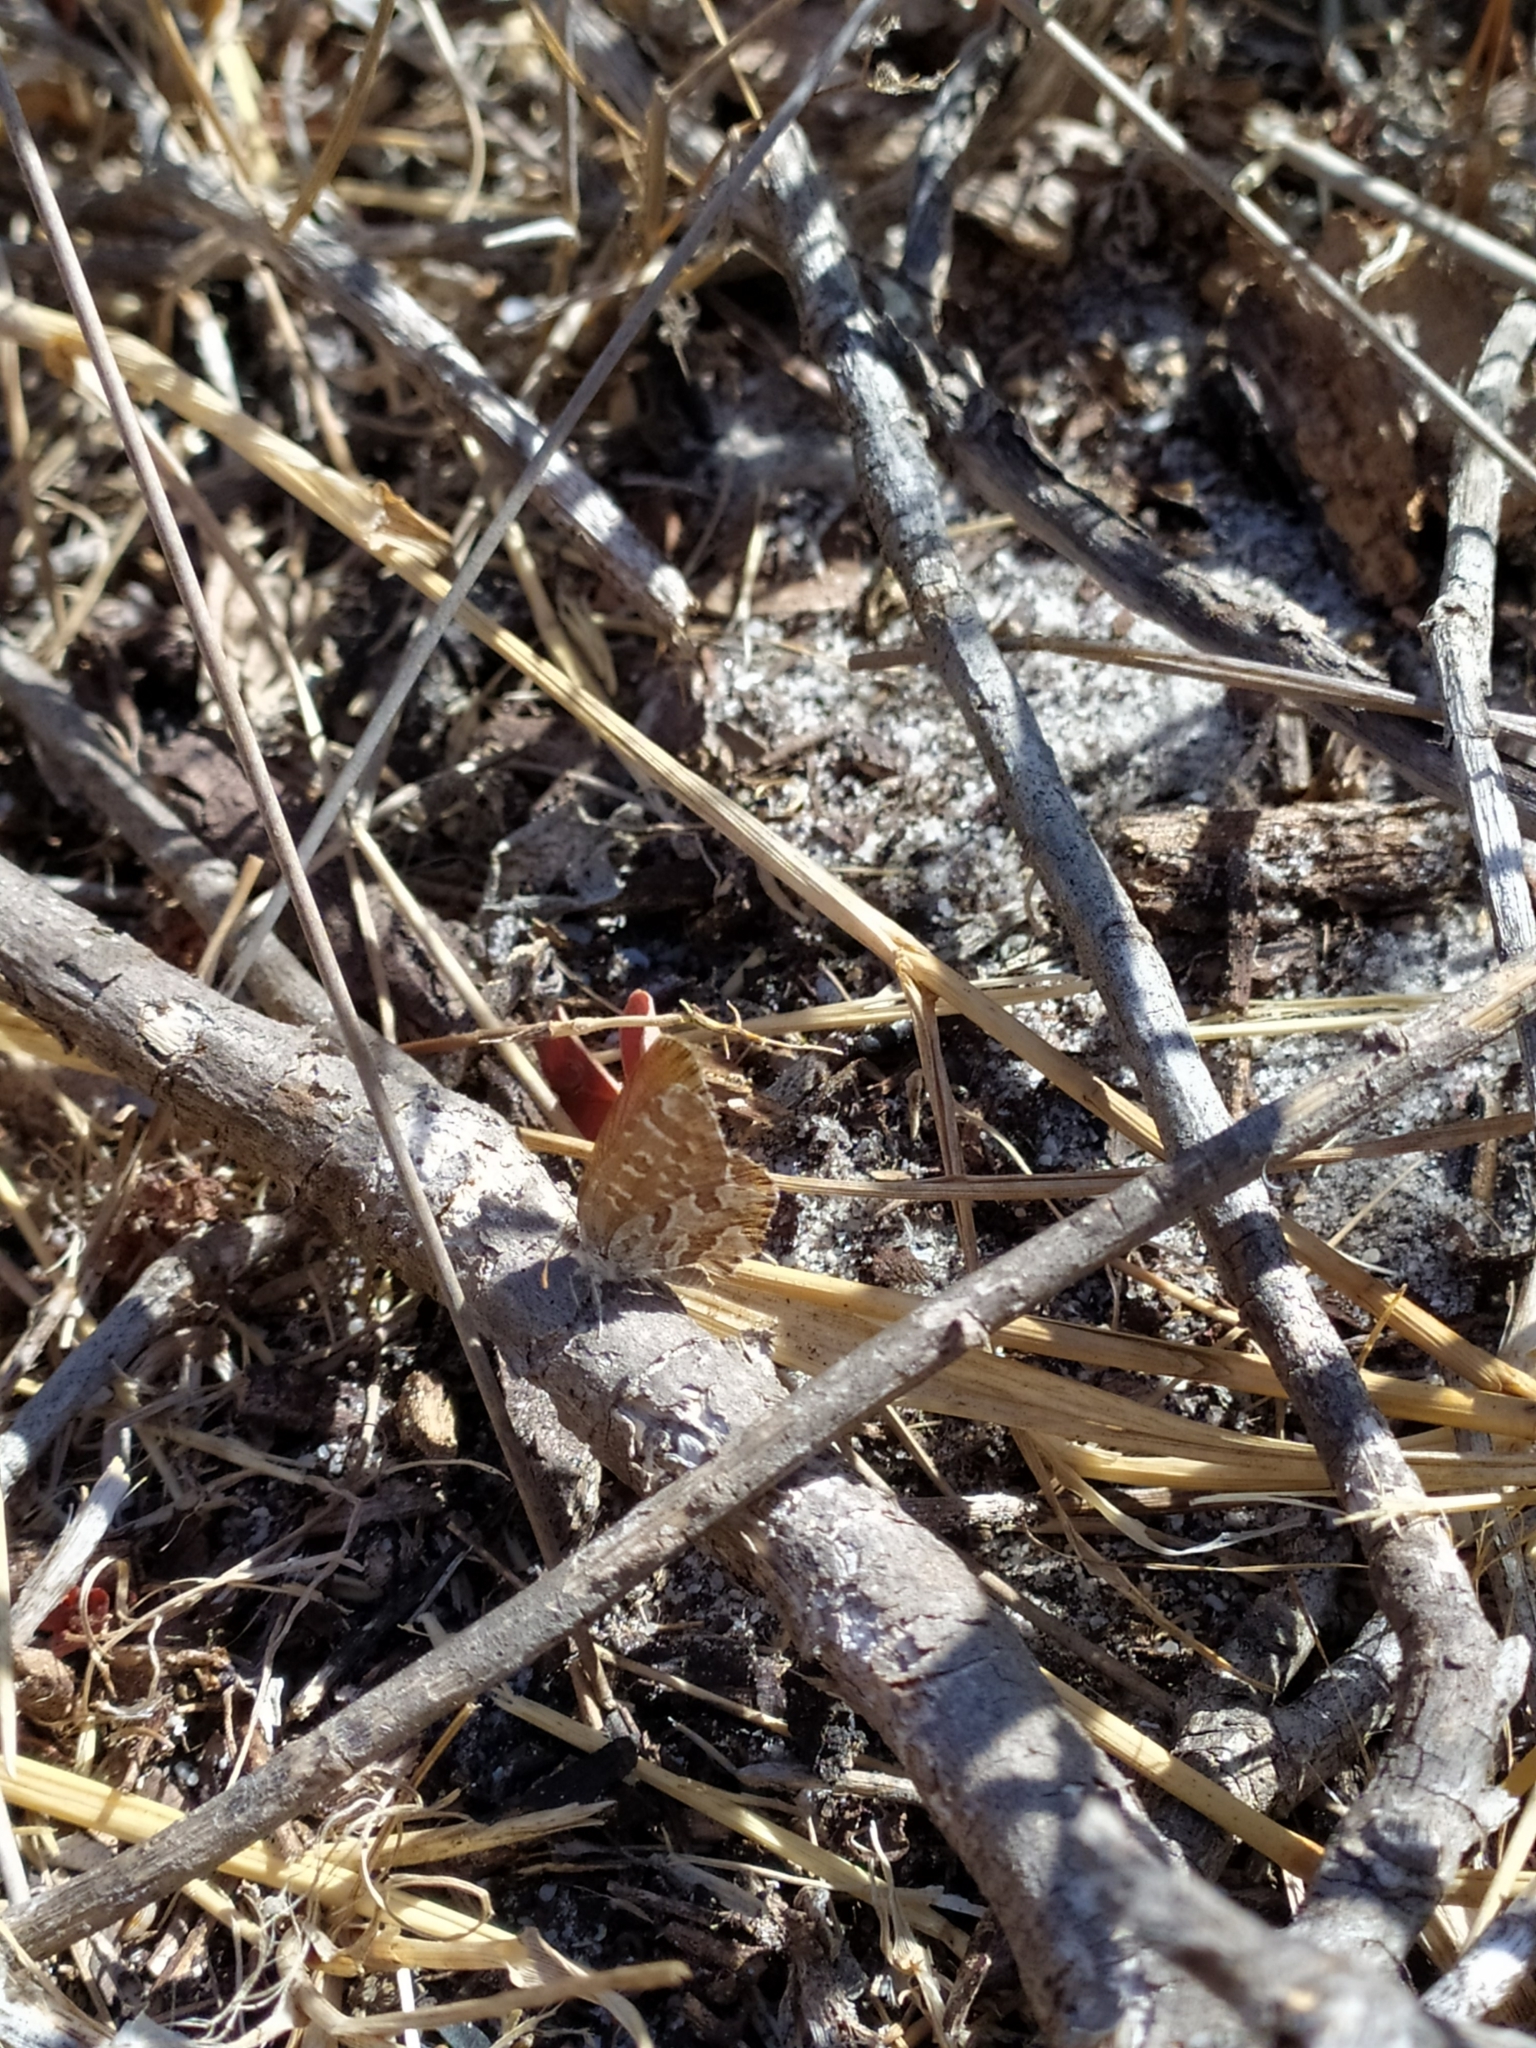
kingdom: Animalia
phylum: Arthropoda
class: Insecta
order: Lepidoptera
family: Lycaenidae
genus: Cacyreus
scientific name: Cacyreus marshalli
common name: Geranium bronze
